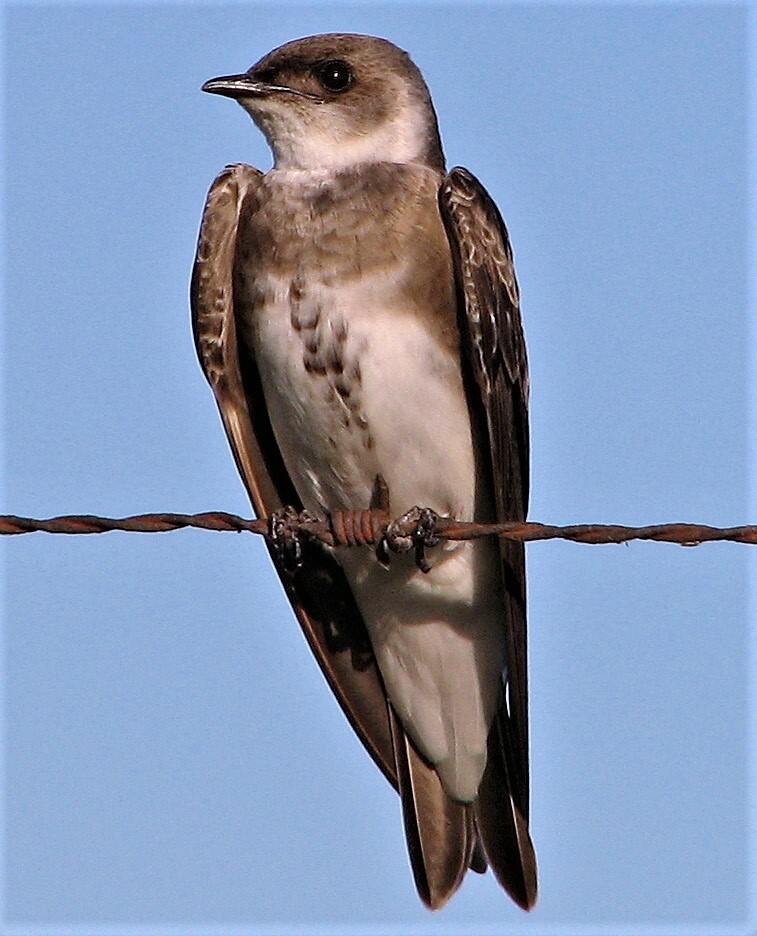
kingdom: Animalia
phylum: Chordata
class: Aves
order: Passeriformes
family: Hirundinidae
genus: Progne
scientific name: Progne tapera
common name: Brown-chested martin
